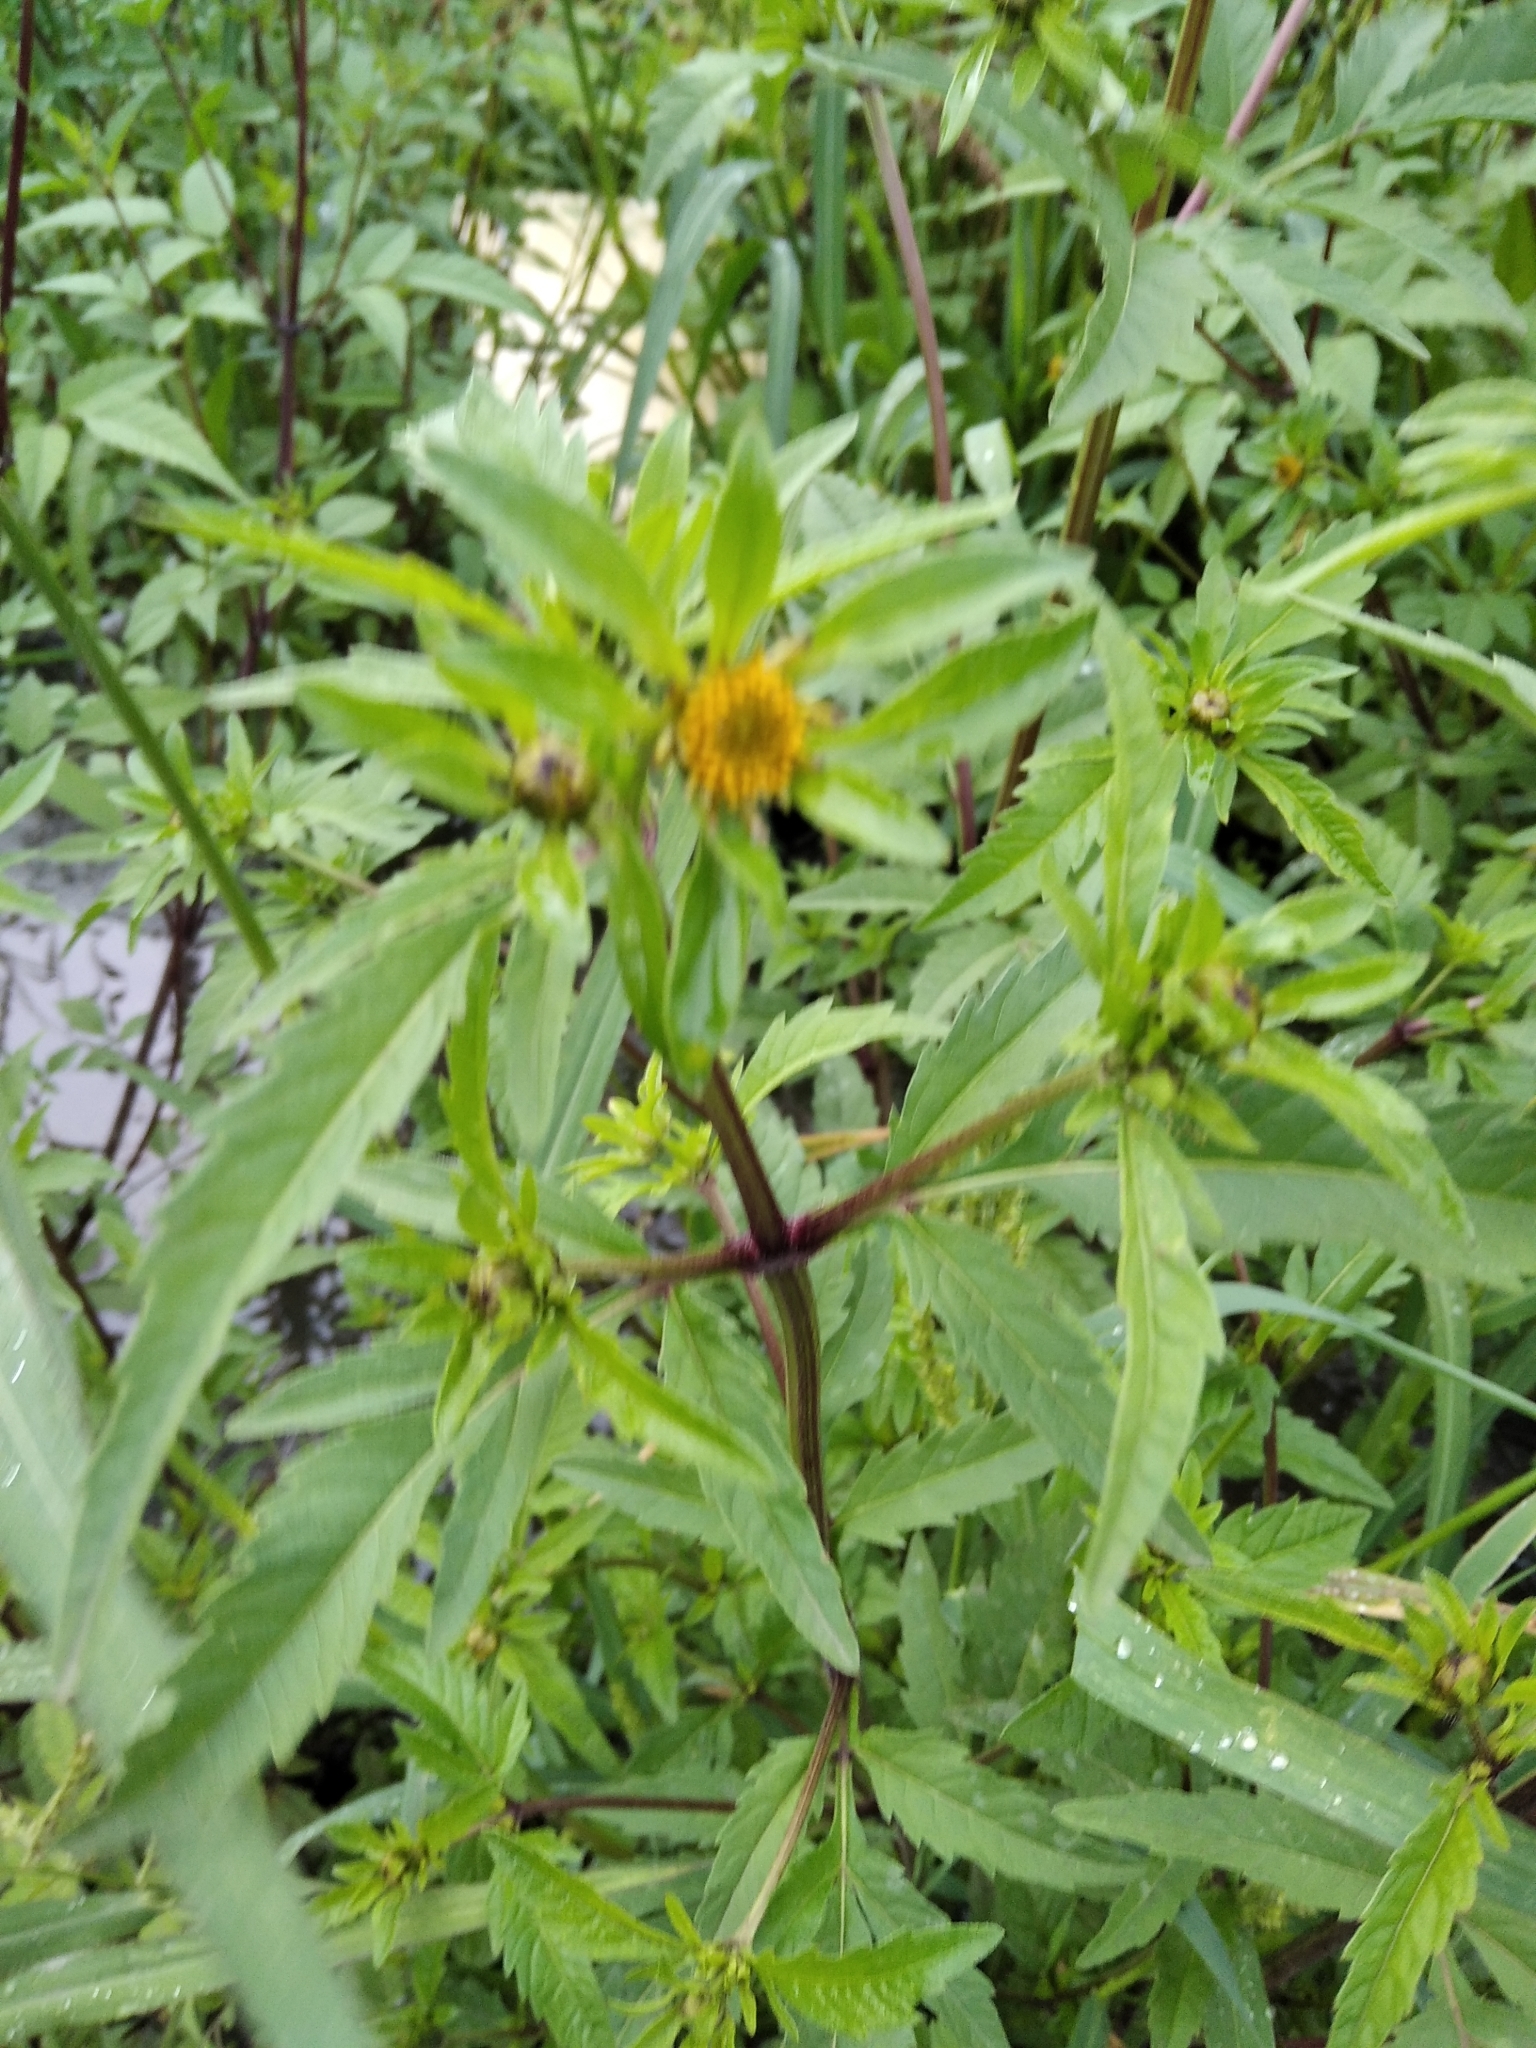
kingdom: Plantae
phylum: Tracheophyta
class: Magnoliopsida
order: Asterales
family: Asteraceae
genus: Bidens
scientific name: Bidens tripartita
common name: Trifid bur-marigold
